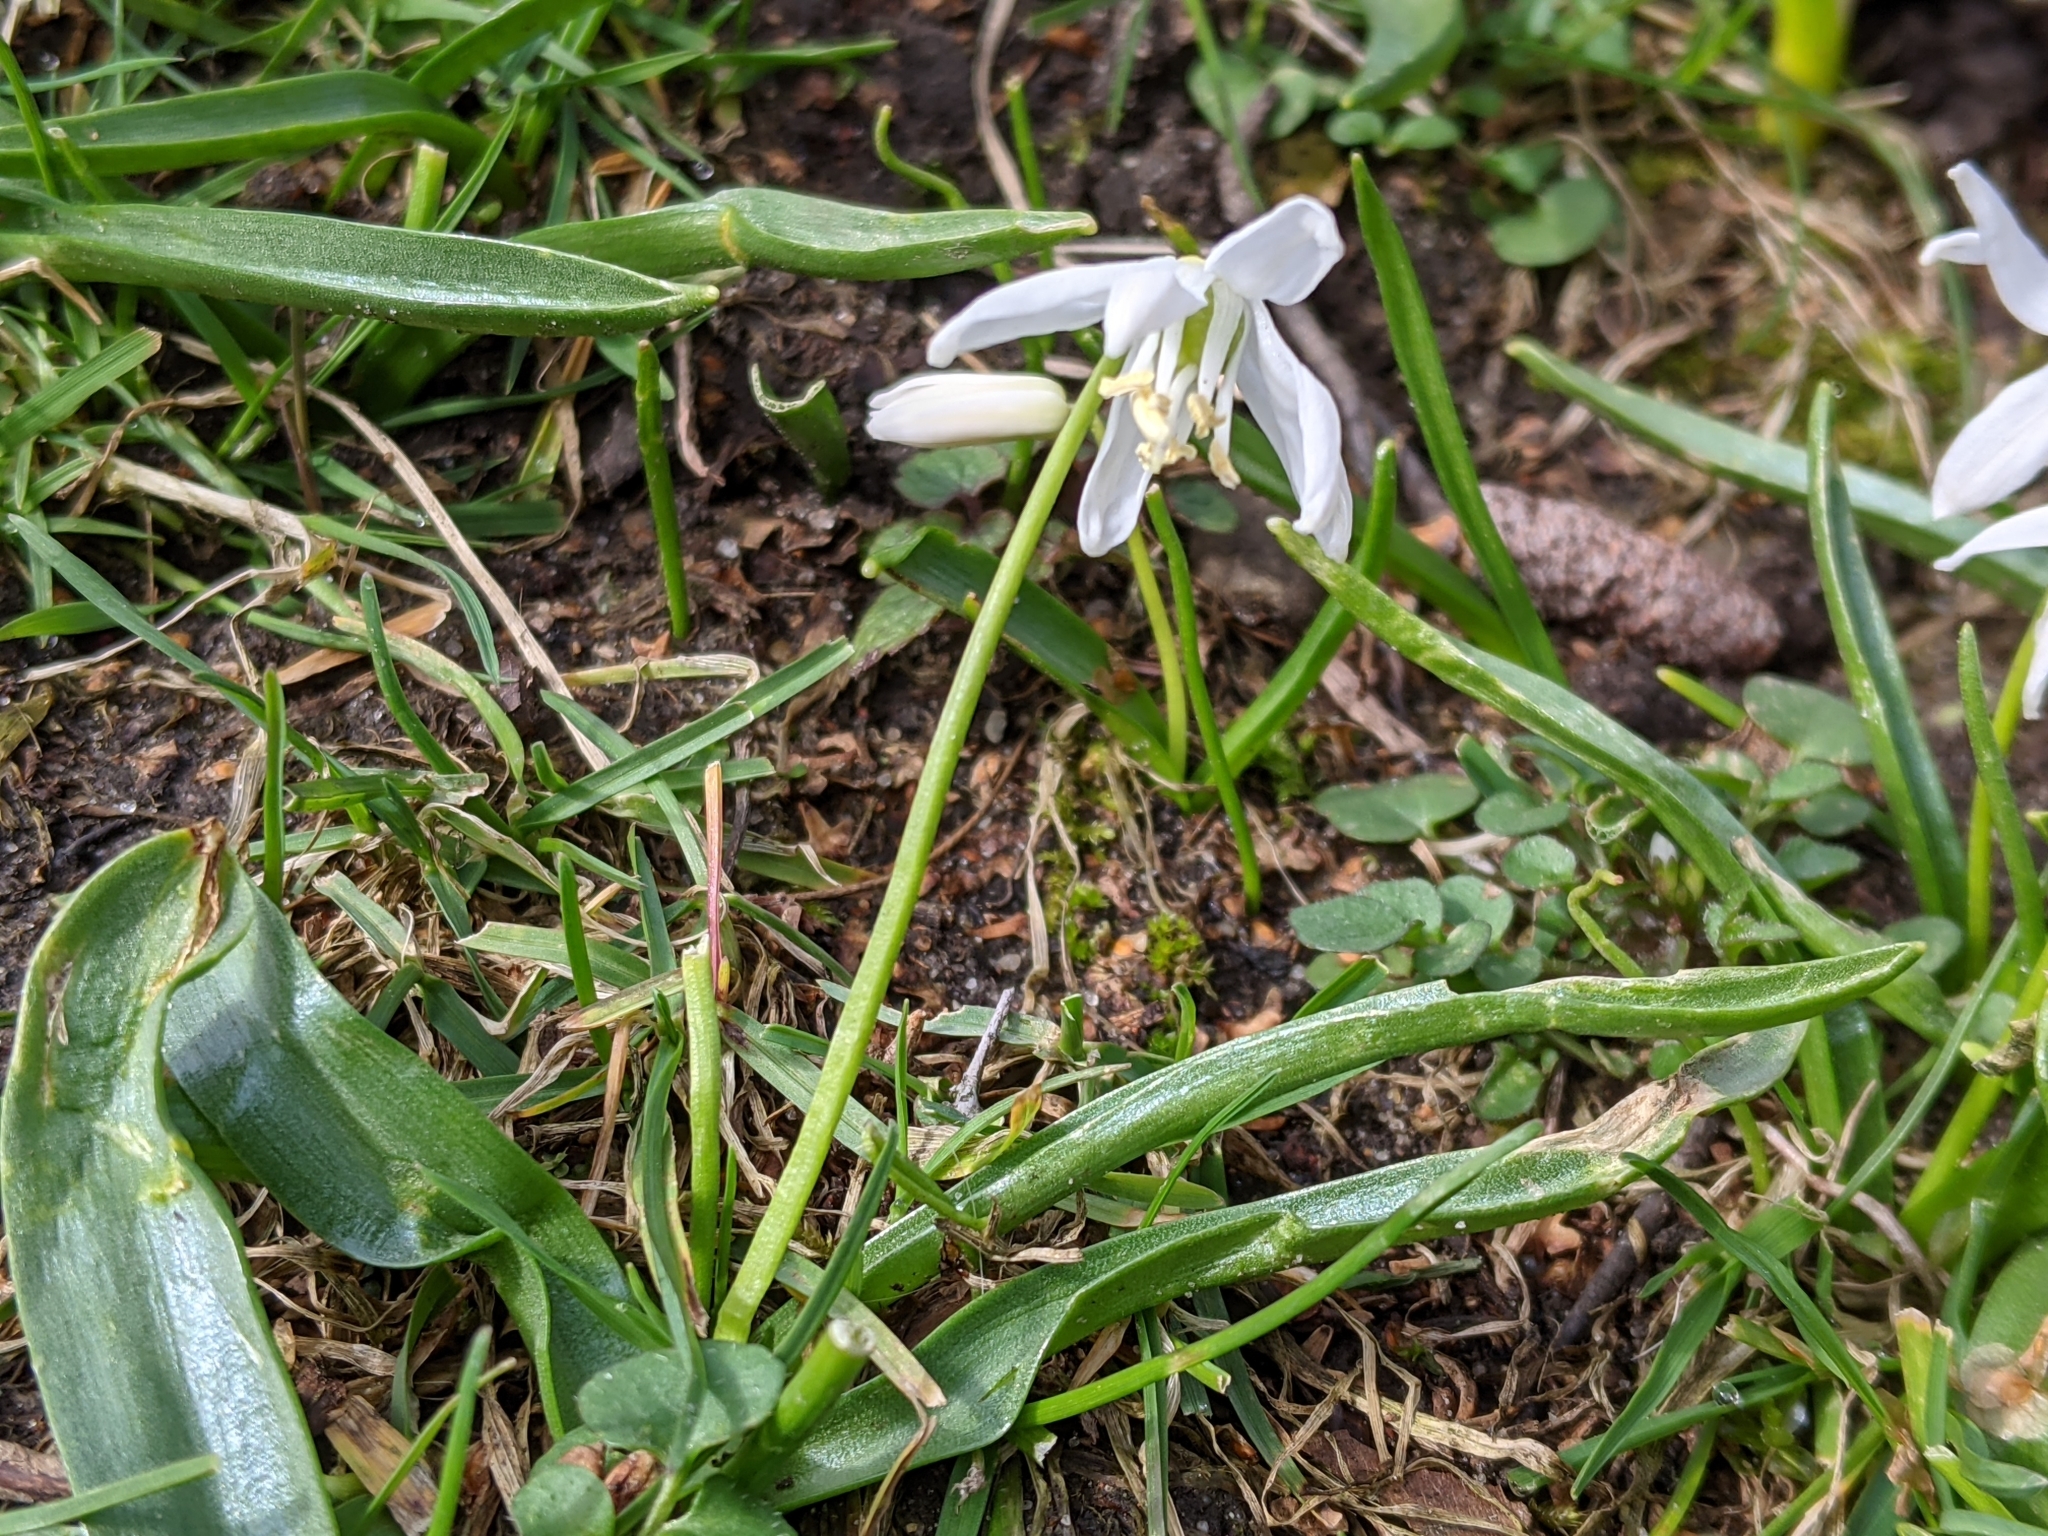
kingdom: Plantae
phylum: Tracheophyta
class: Liliopsida
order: Asparagales
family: Asparagaceae
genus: Scilla
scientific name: Scilla siberica
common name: Siberian squill
